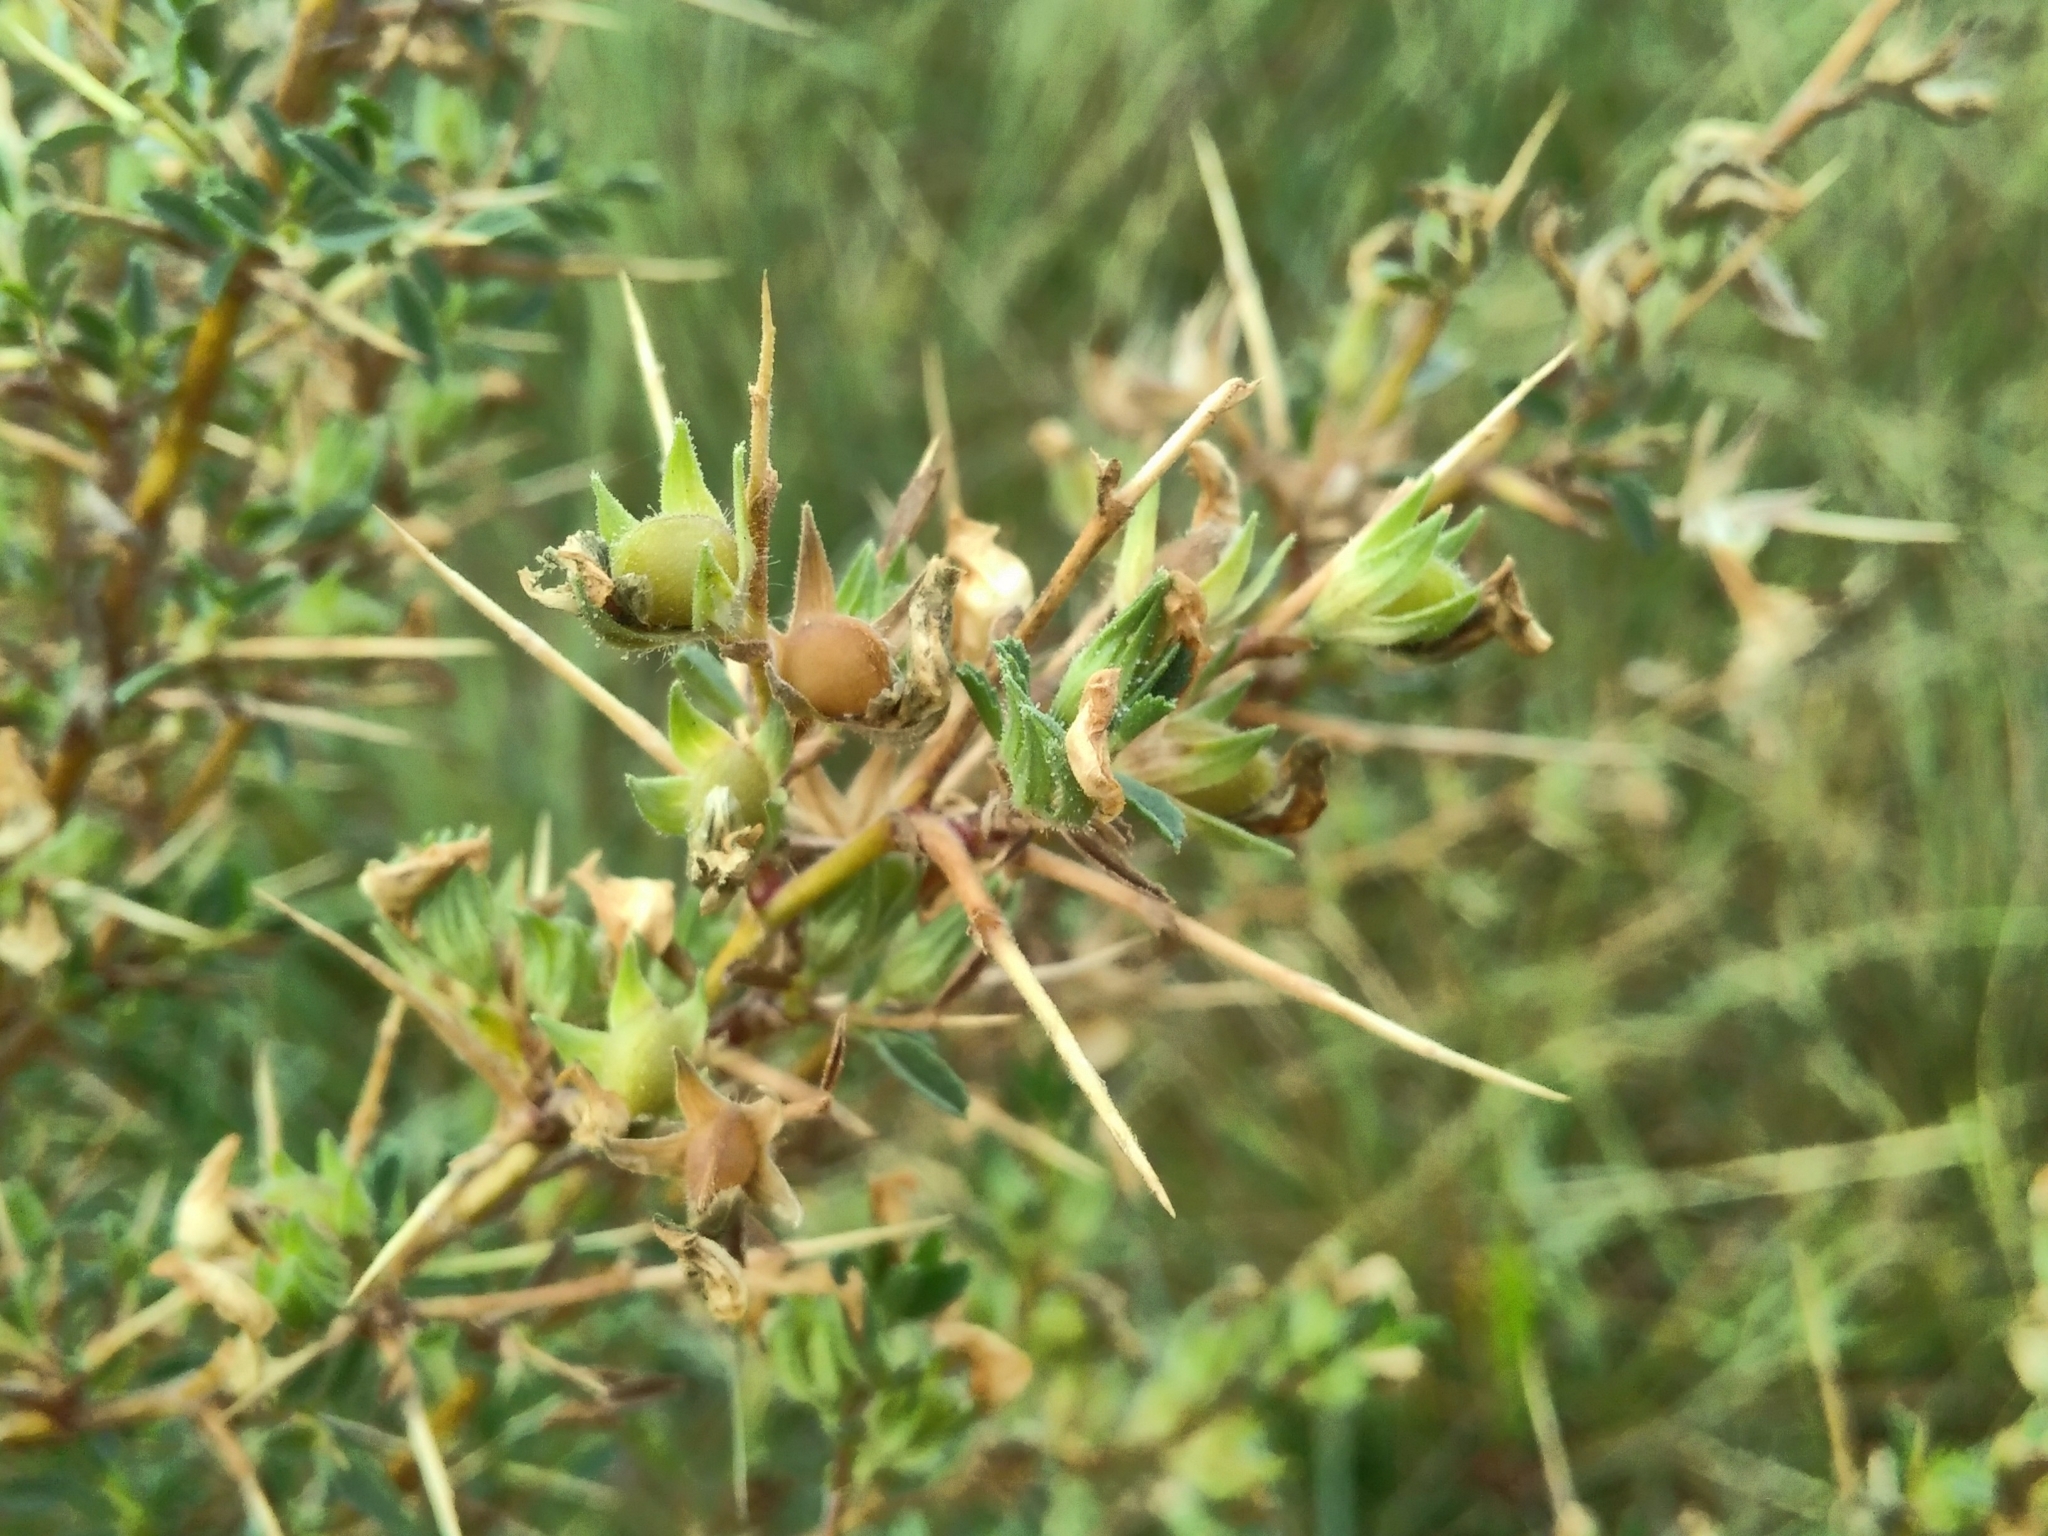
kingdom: Plantae
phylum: Tracheophyta
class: Magnoliopsida
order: Fabales
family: Fabaceae
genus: Ononis
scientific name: Ononis spinosa
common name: Spiny restharrow
